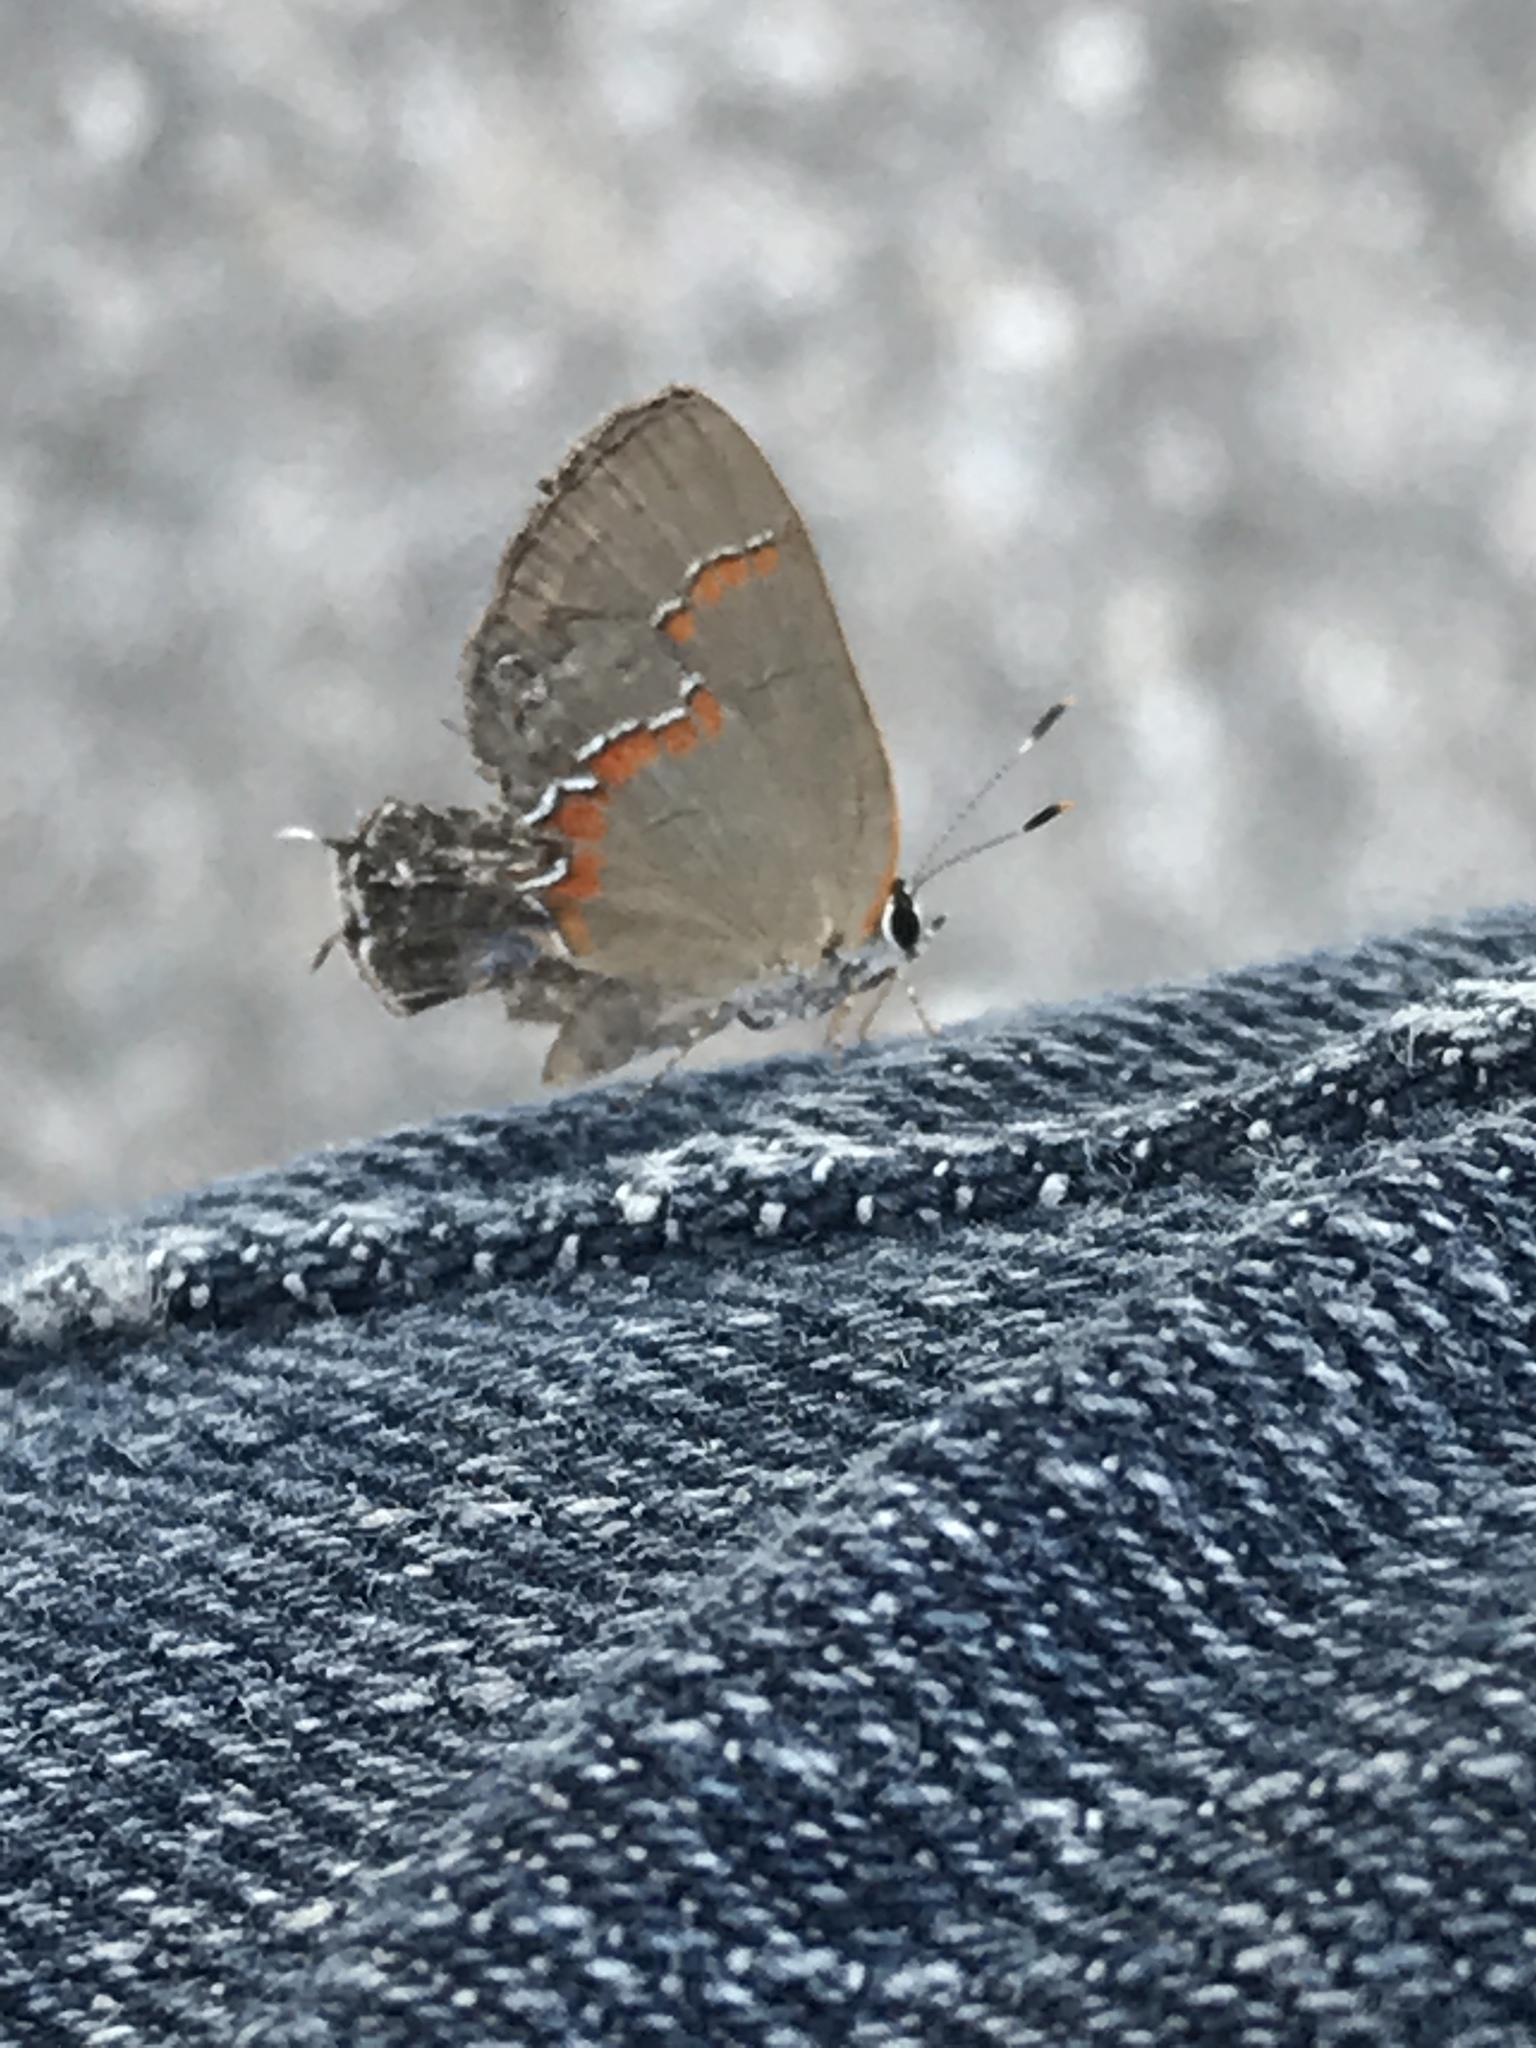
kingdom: Animalia
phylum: Arthropoda
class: Insecta
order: Lepidoptera
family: Lycaenidae
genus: Calycopis
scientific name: Calycopis cecrops
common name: Red-banded hairstreak
